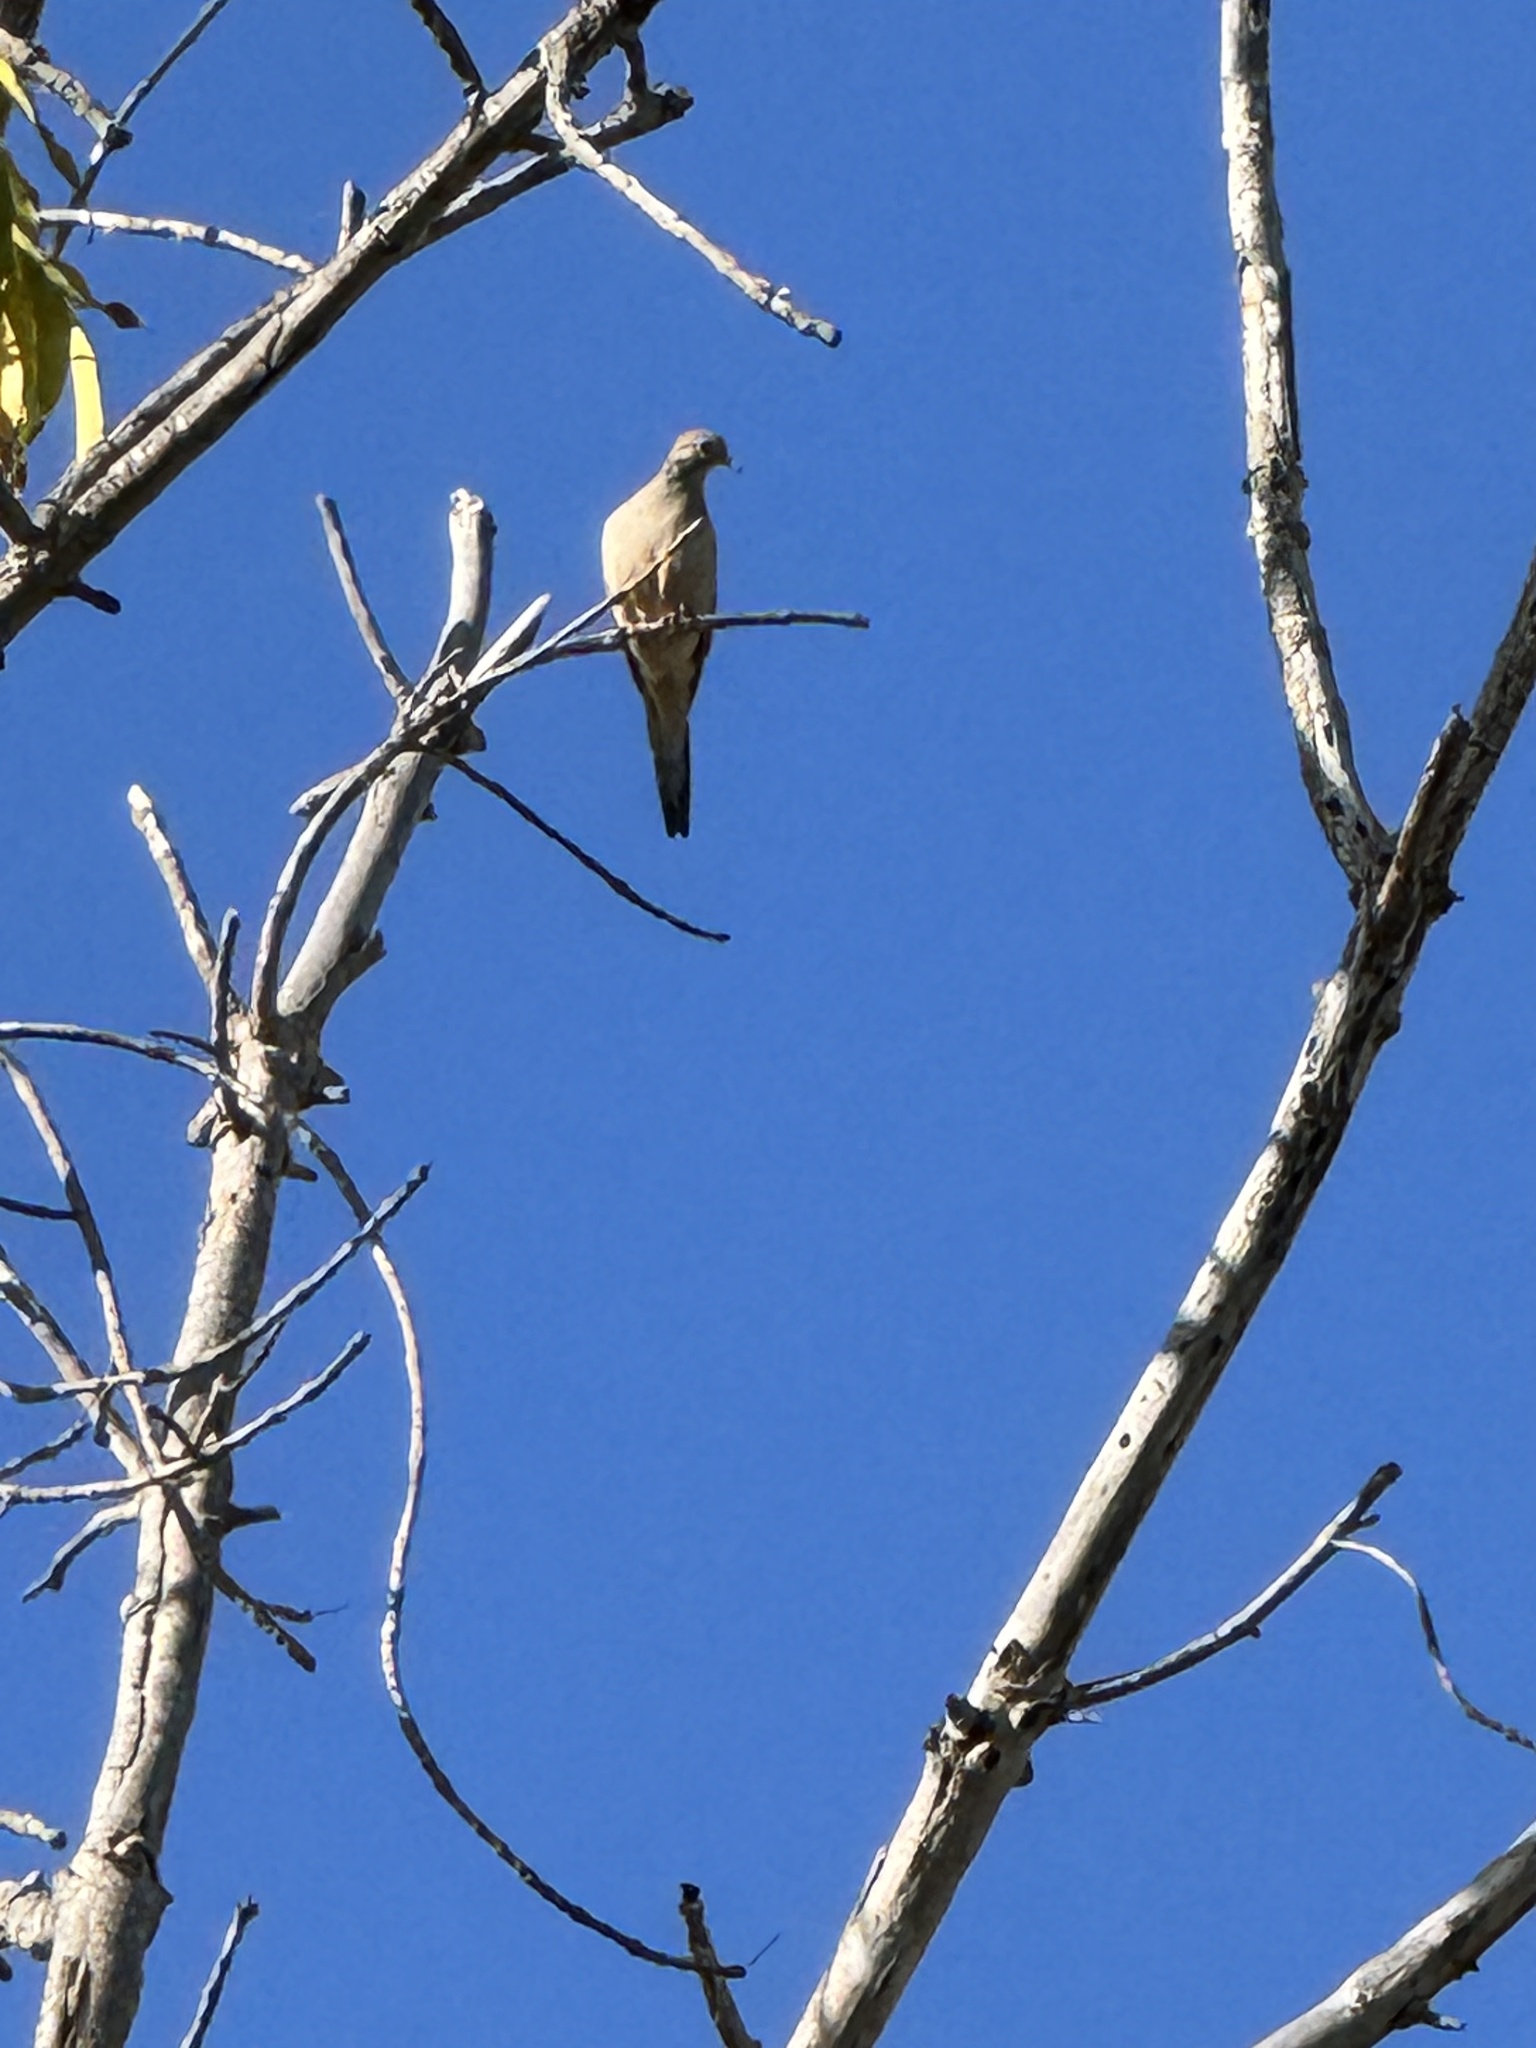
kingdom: Animalia
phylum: Chordata
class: Aves
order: Columbiformes
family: Columbidae
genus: Zenaida
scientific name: Zenaida macroura
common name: Mourning dove
